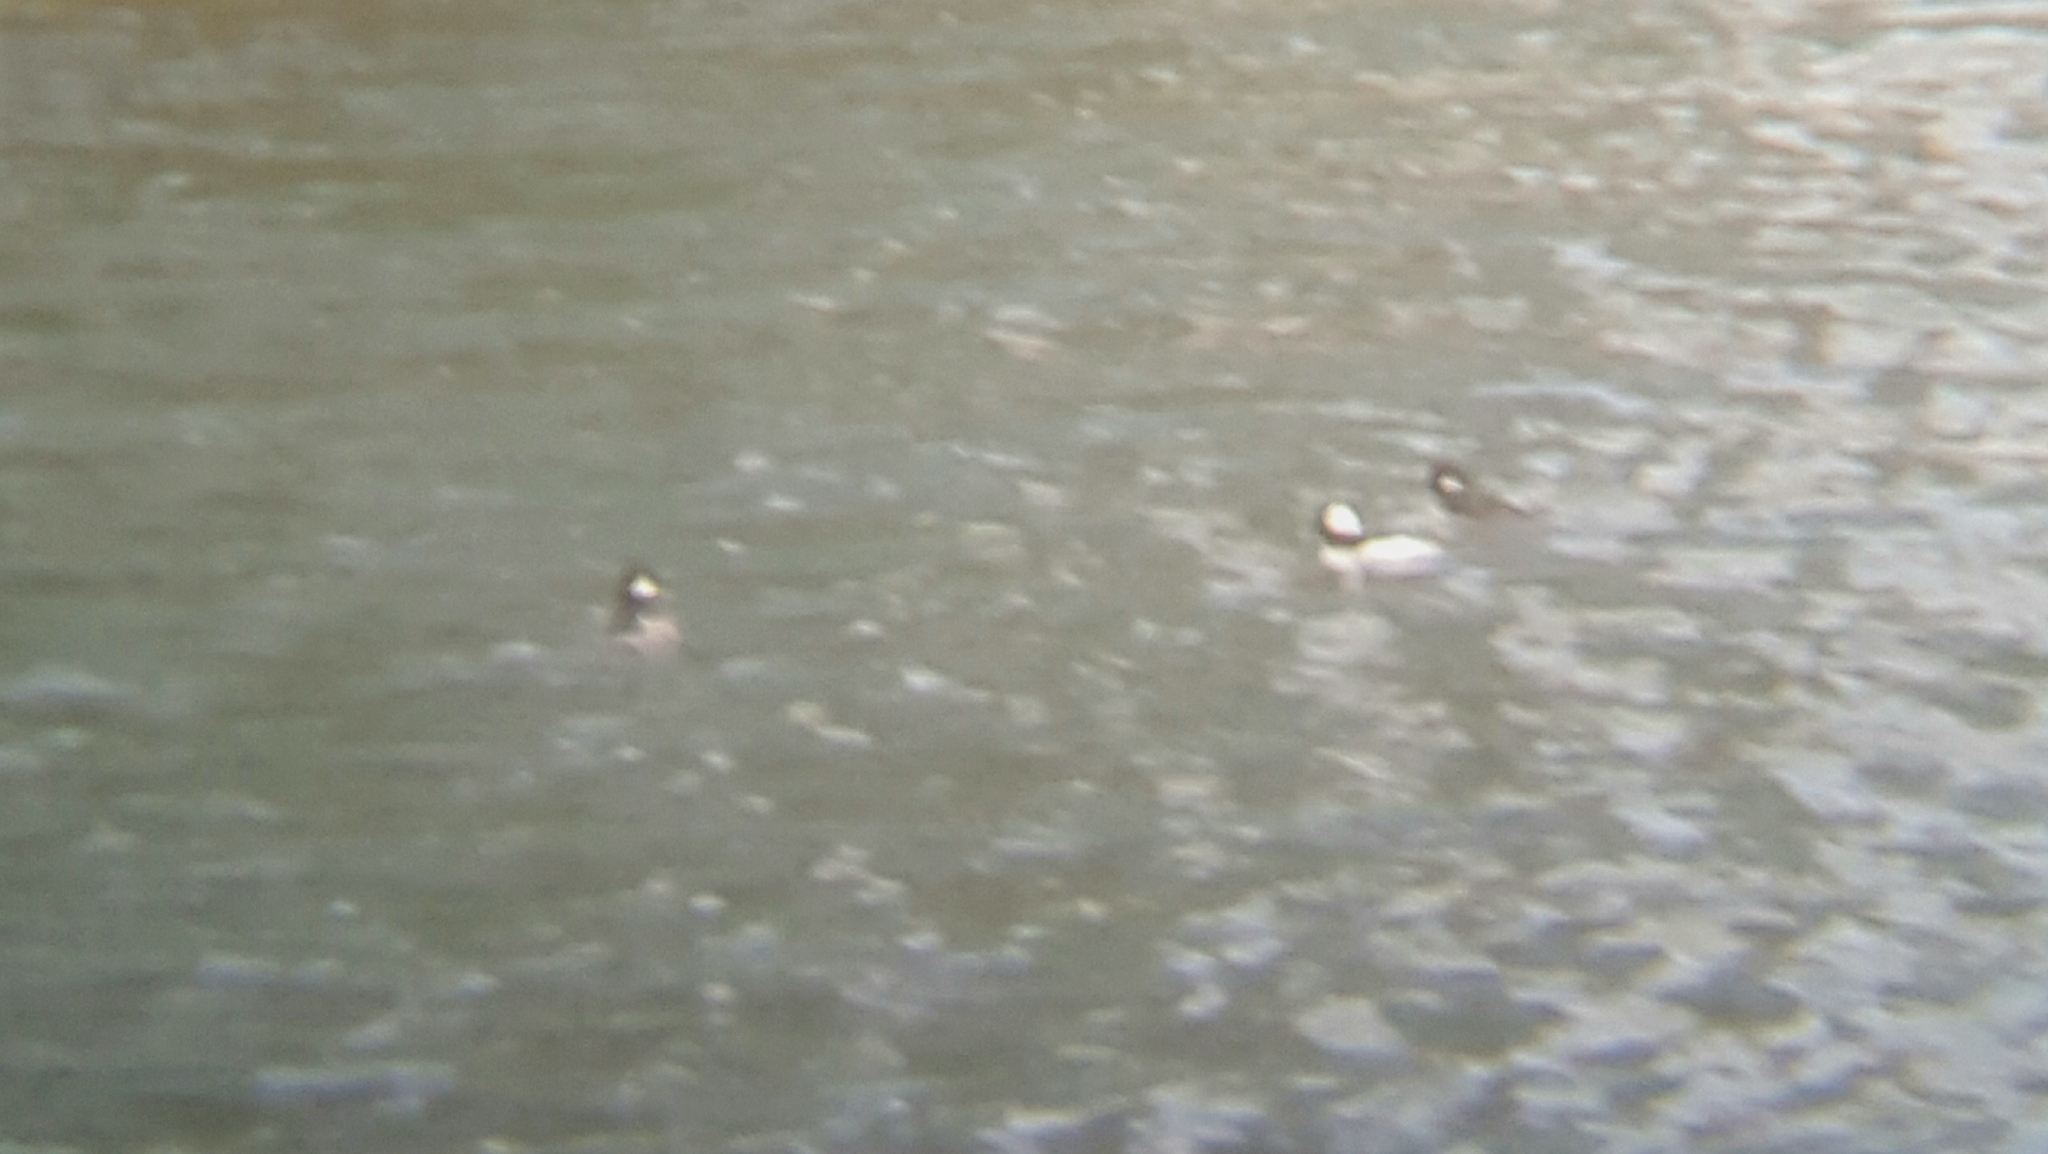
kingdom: Animalia
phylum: Chordata
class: Aves
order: Anseriformes
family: Anatidae
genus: Bucephala
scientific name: Bucephala albeola
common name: Bufflehead
